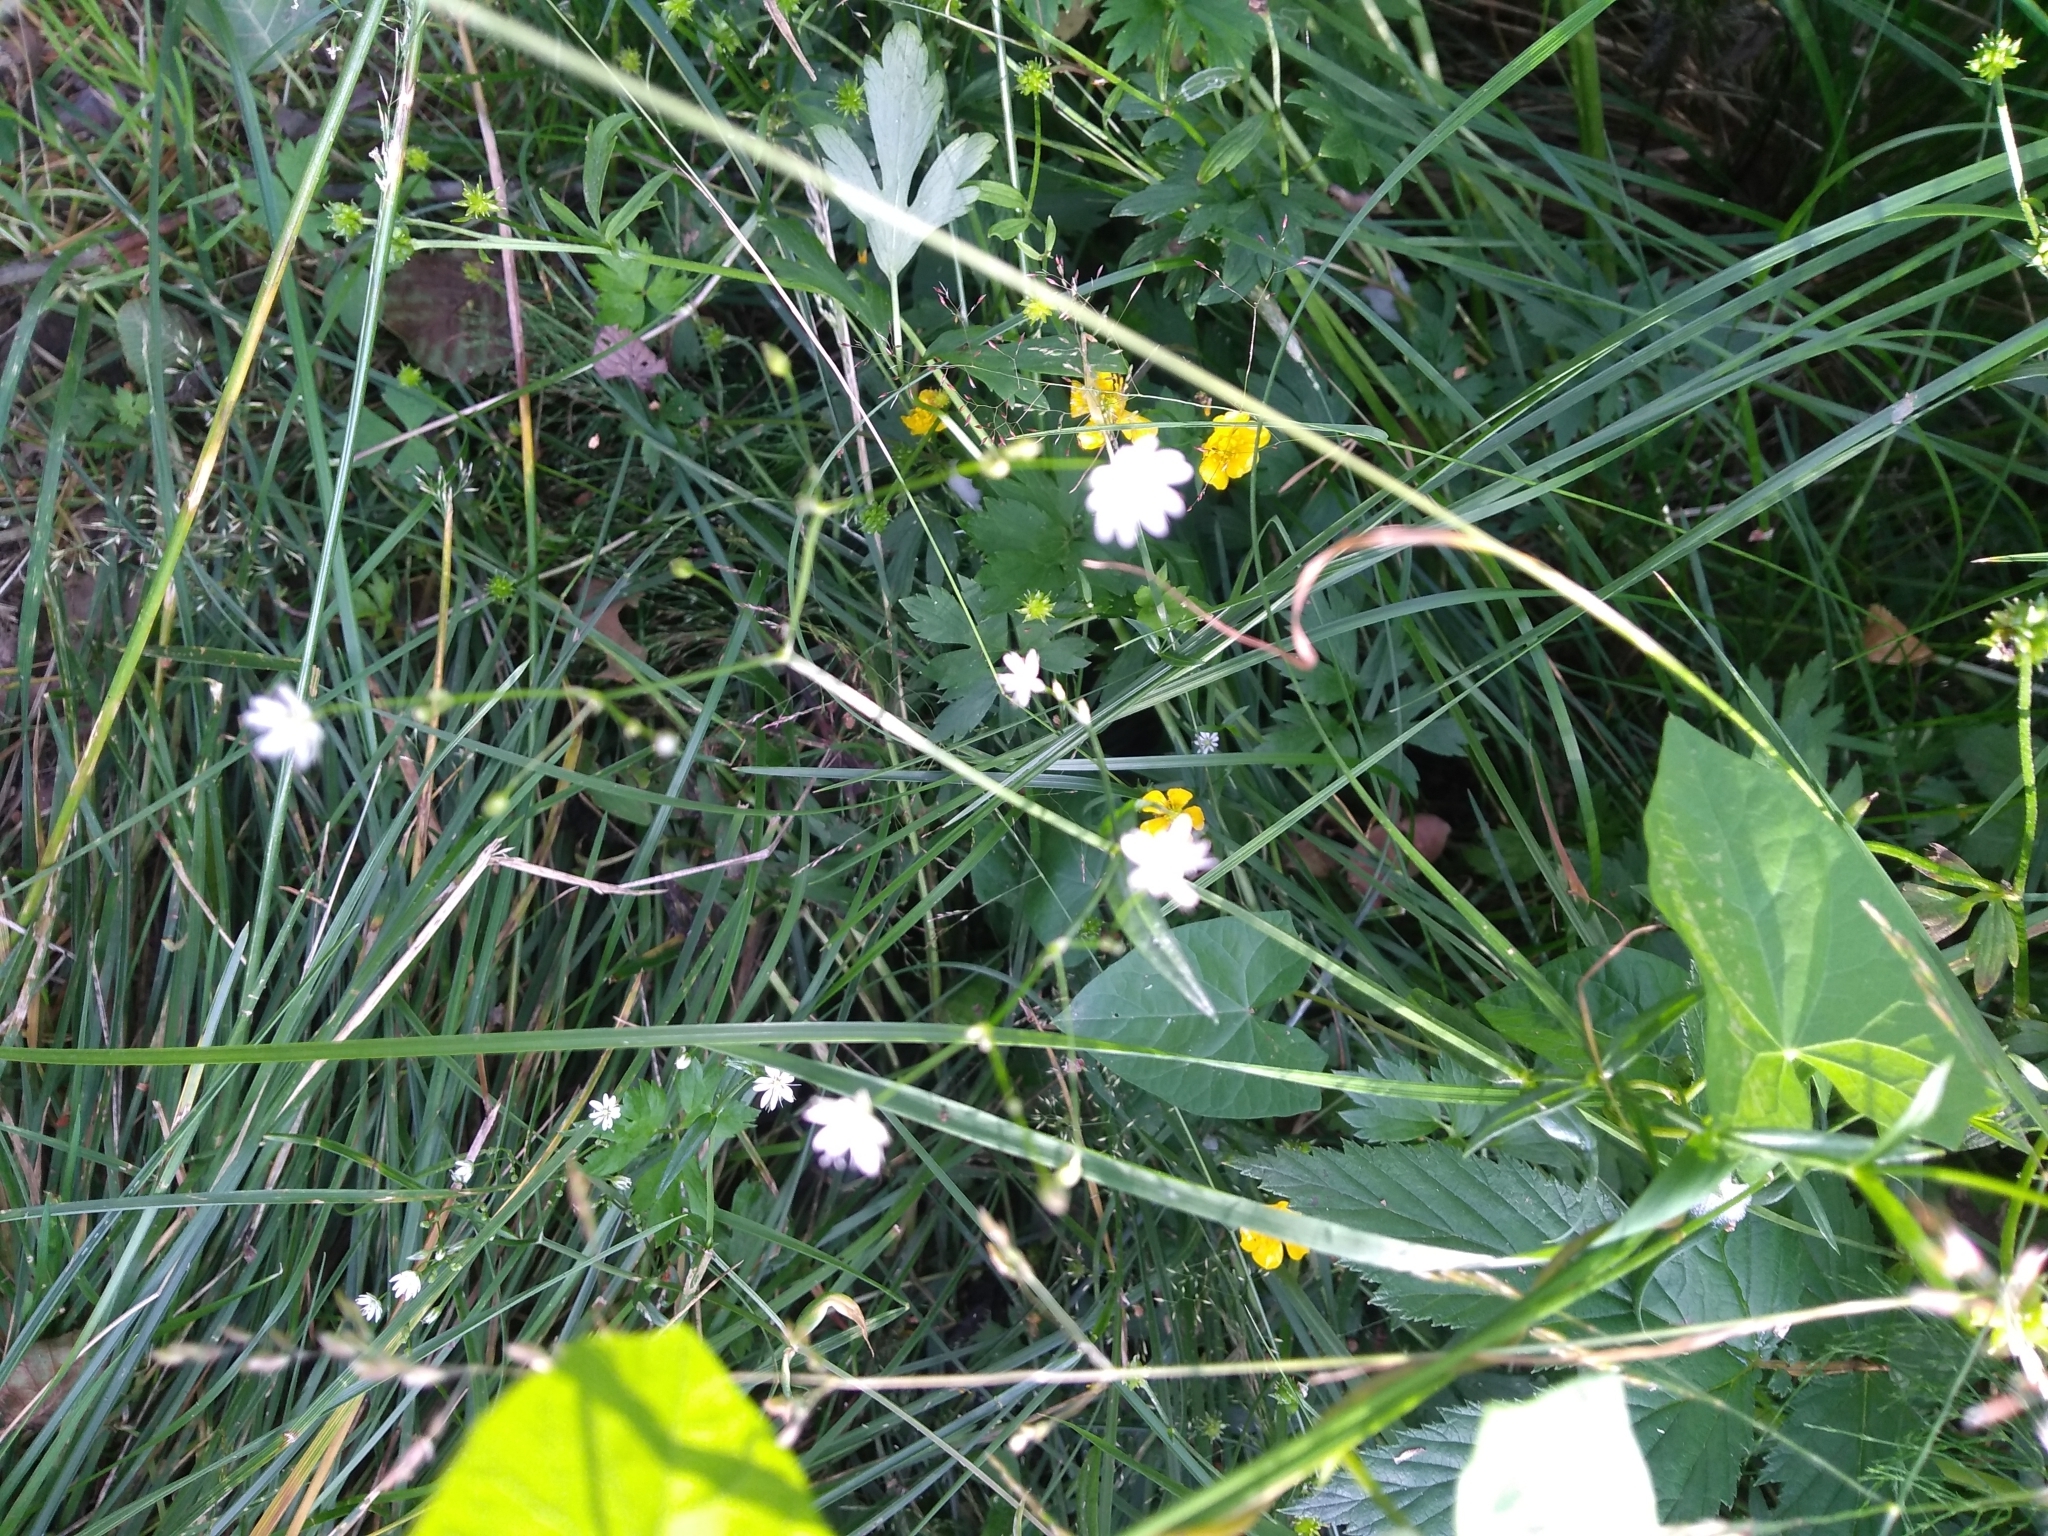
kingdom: Plantae
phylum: Tracheophyta
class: Magnoliopsida
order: Caryophyllales
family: Caryophyllaceae
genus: Stellaria
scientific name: Stellaria graminea
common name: Grass-like starwort
